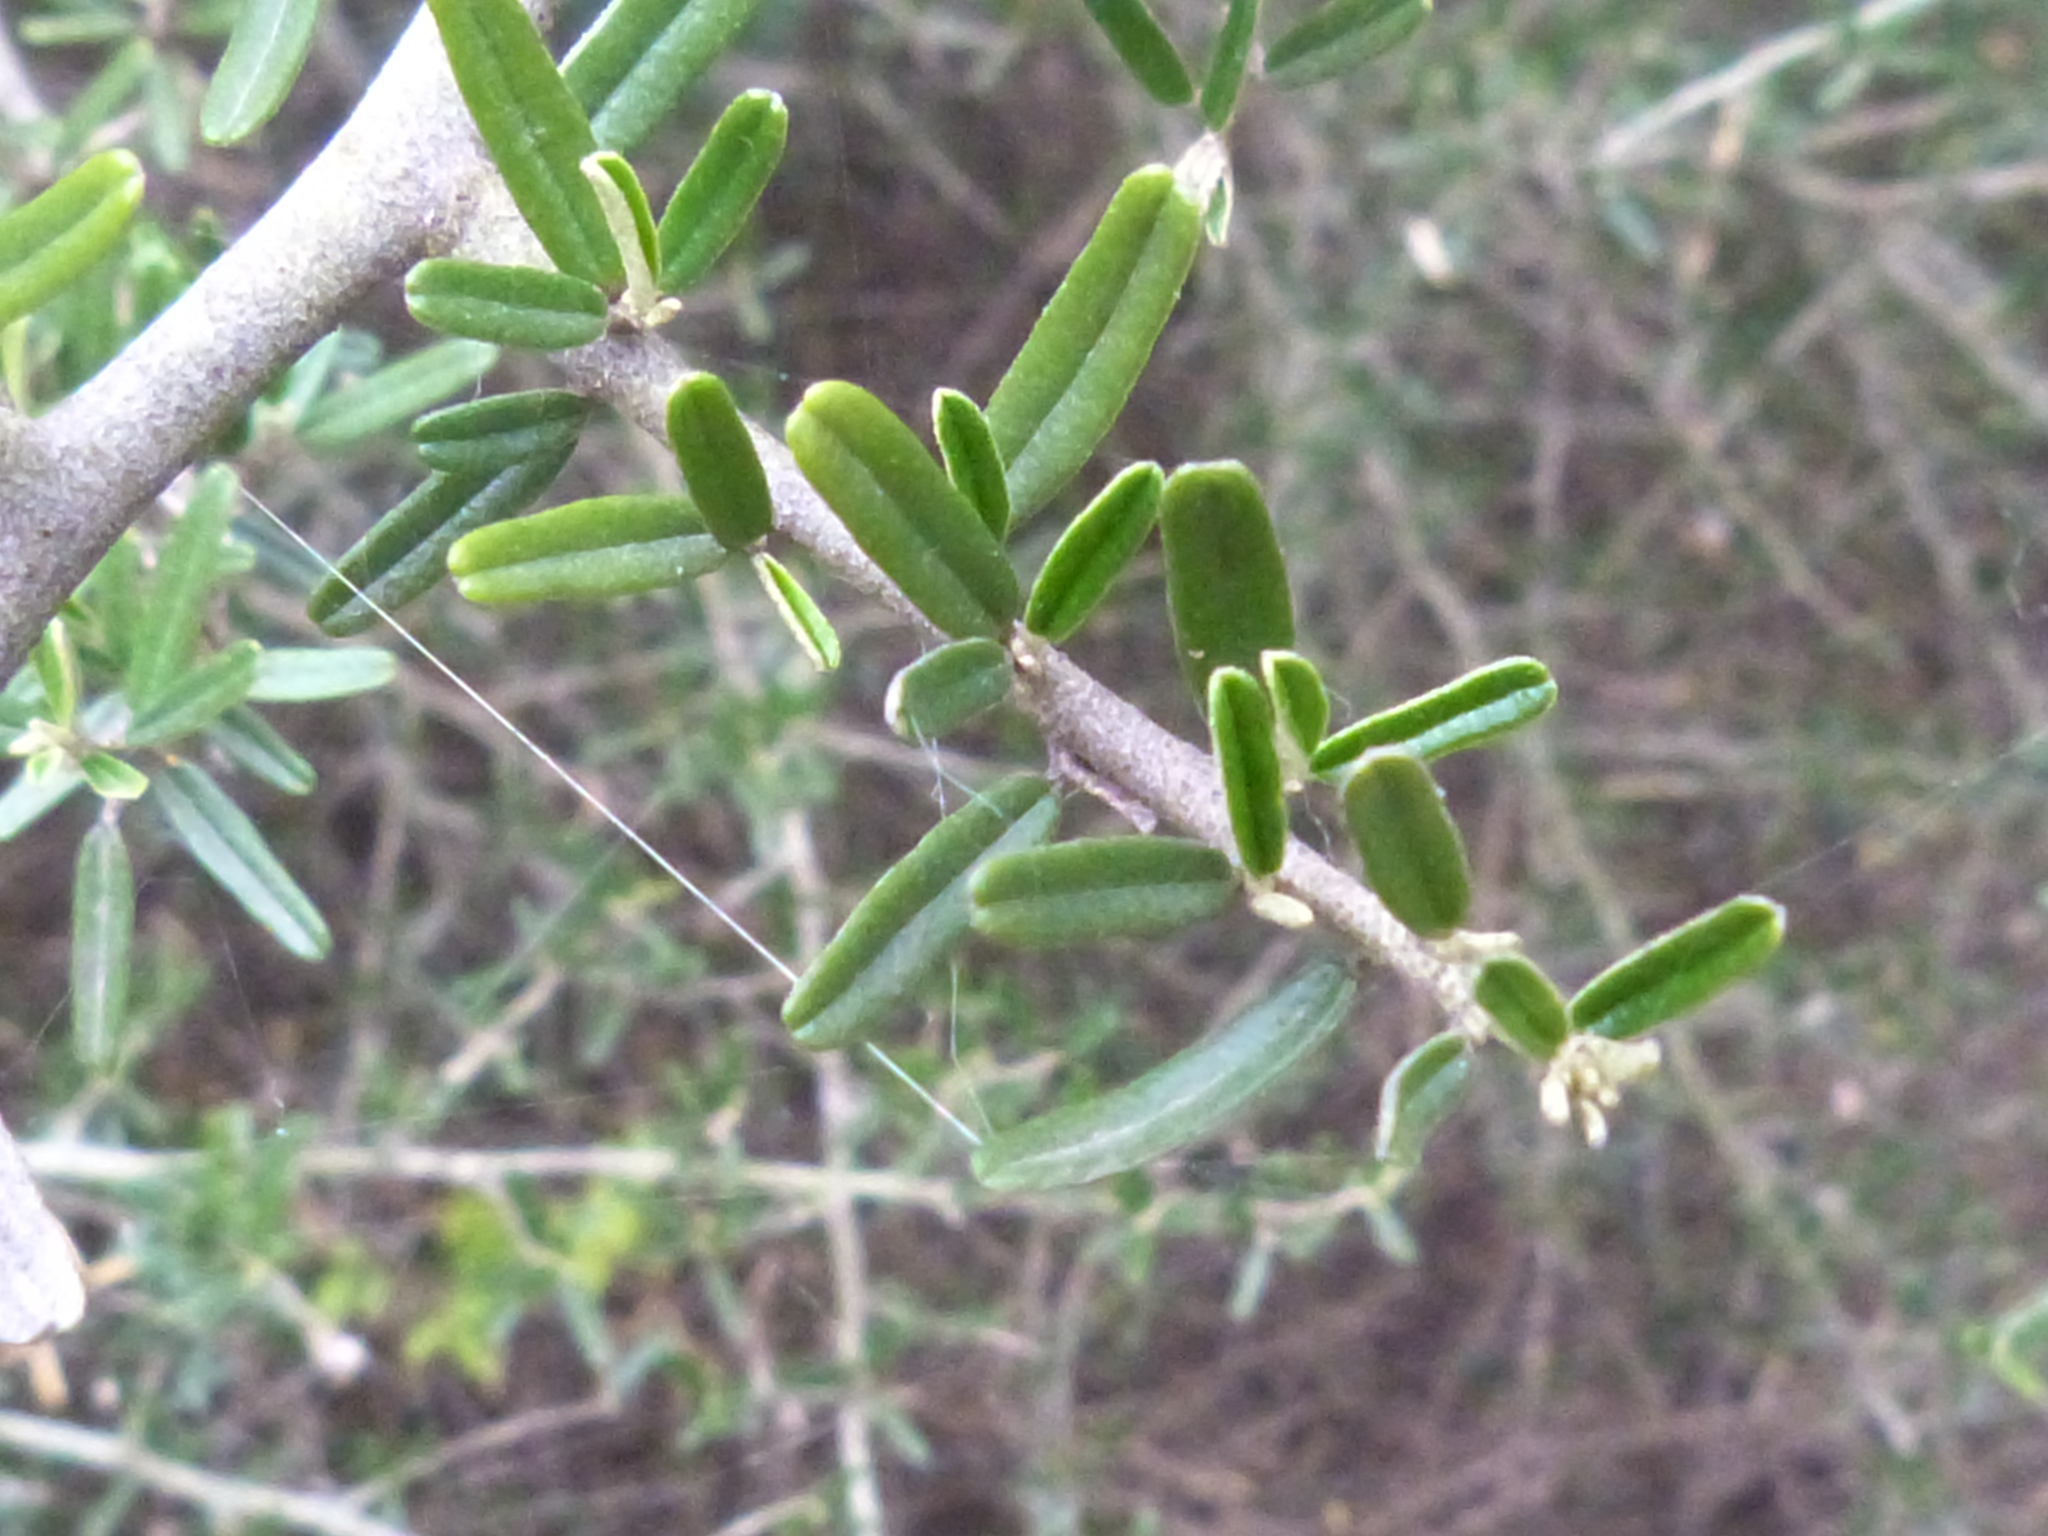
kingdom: Plantae
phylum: Tracheophyta
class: Magnoliopsida
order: Brassicales
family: Capparaceae
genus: Atamisquea
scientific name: Atamisquea emarginata
